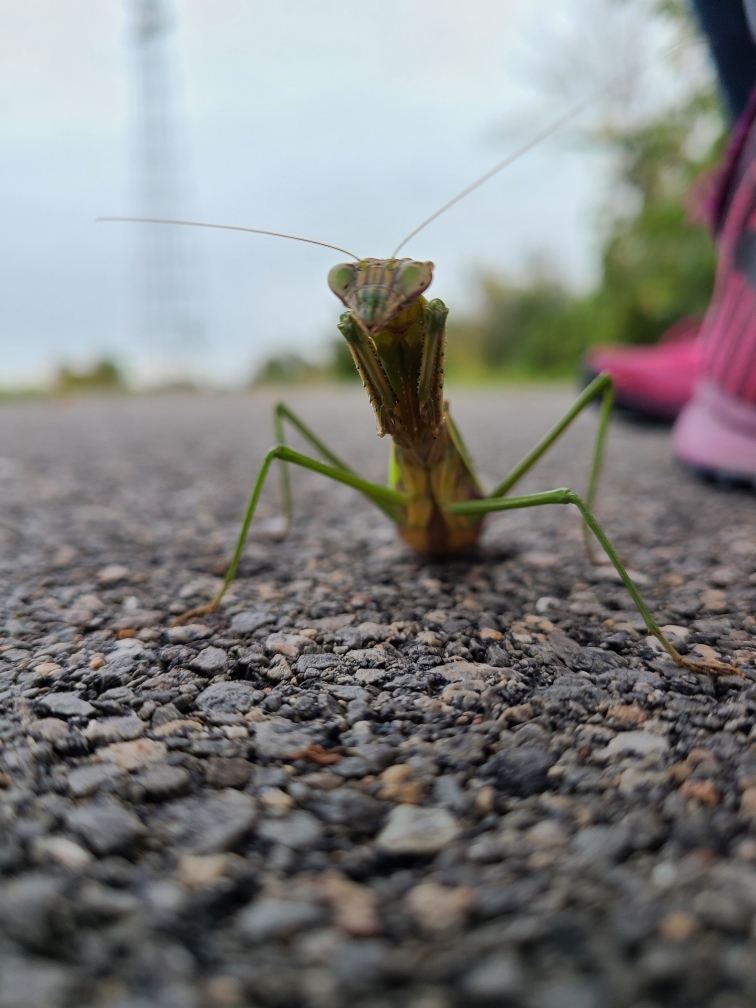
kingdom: Animalia
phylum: Arthropoda
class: Insecta
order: Mantodea
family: Mantidae
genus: Tenodera
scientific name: Tenodera sinensis
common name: Chinese mantis
